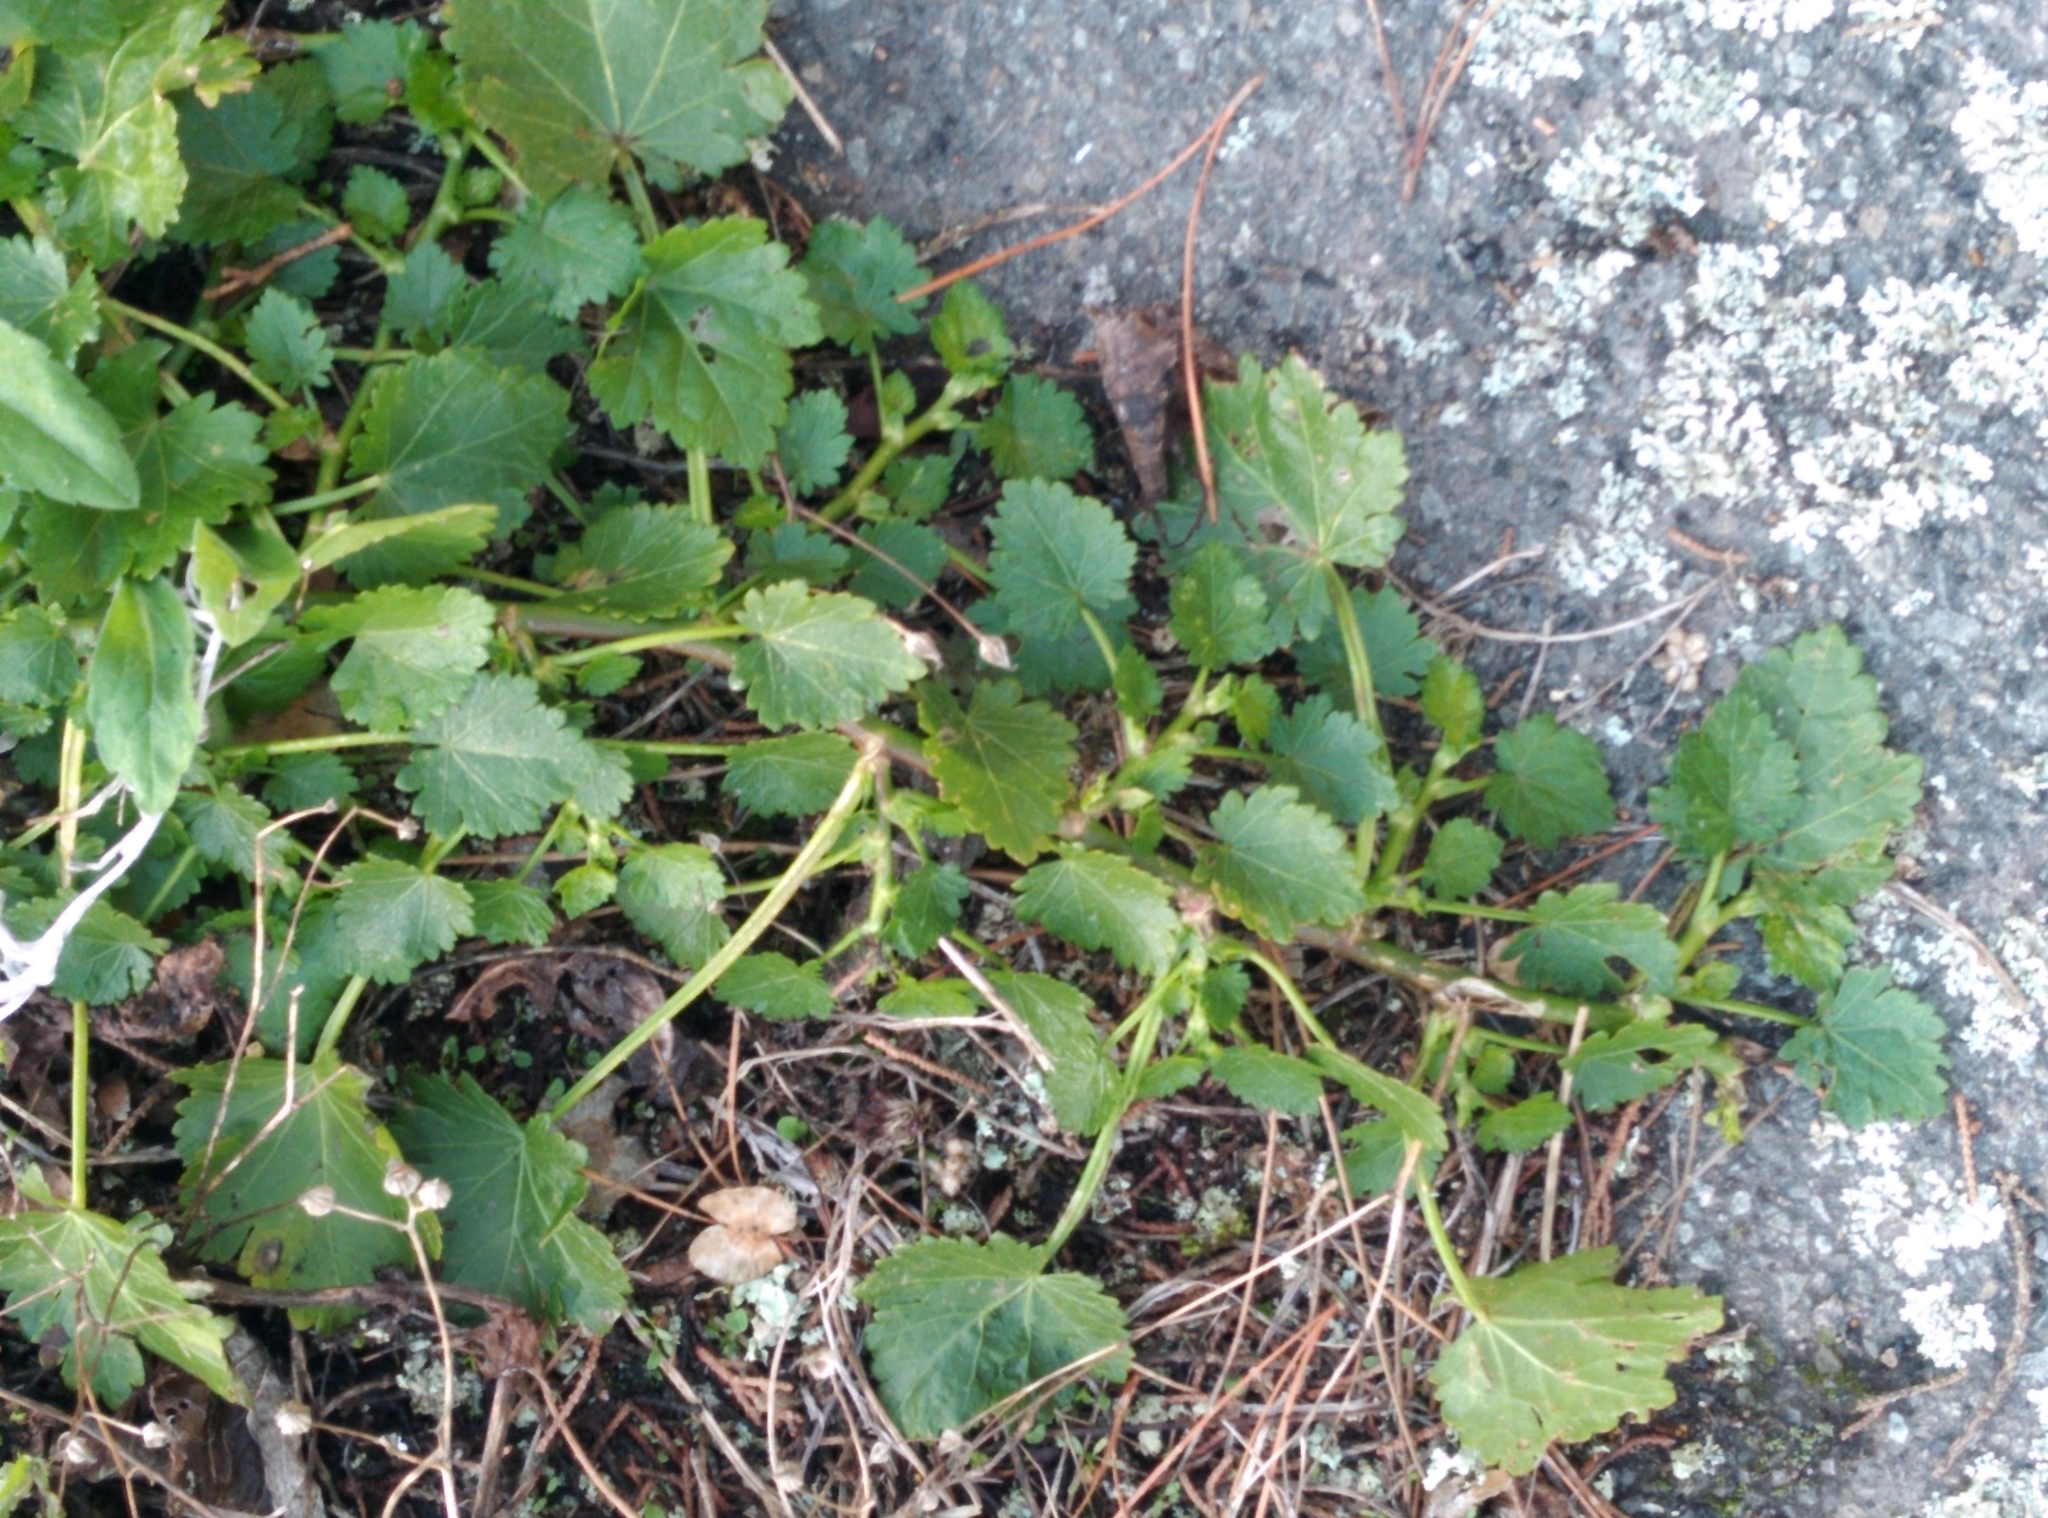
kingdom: Plantae
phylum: Tracheophyta
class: Magnoliopsida
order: Malvales
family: Malvaceae
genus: Modiola
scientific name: Modiola caroliniana
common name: Carolina bristlemallow
